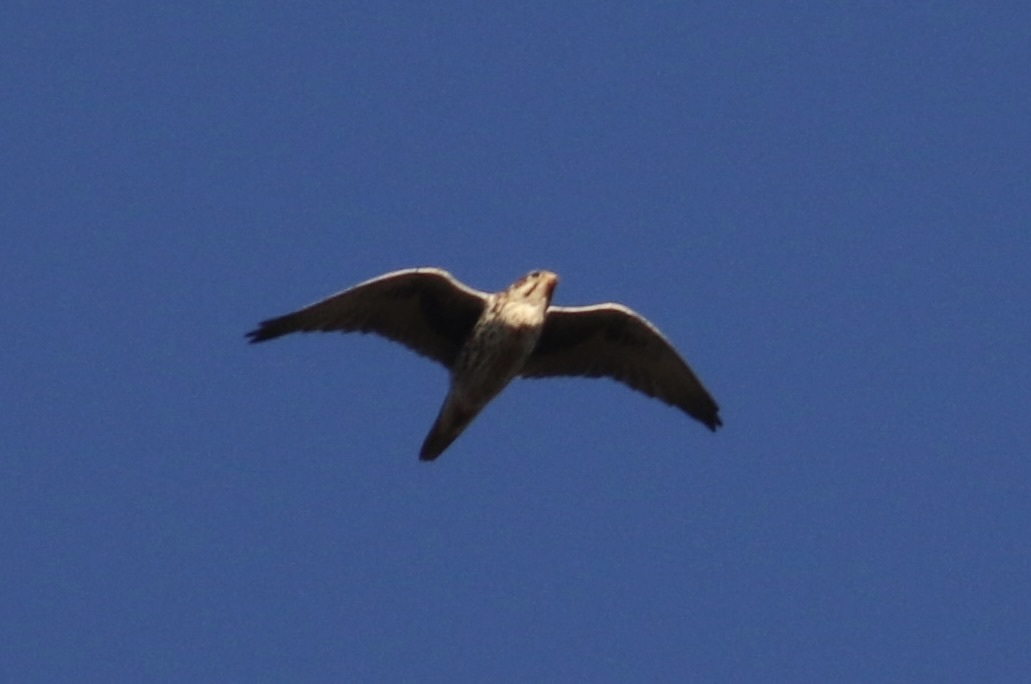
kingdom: Animalia
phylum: Chordata
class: Aves
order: Falconiformes
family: Falconidae
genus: Falco
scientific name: Falco mexicanus
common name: Prairie falcon
